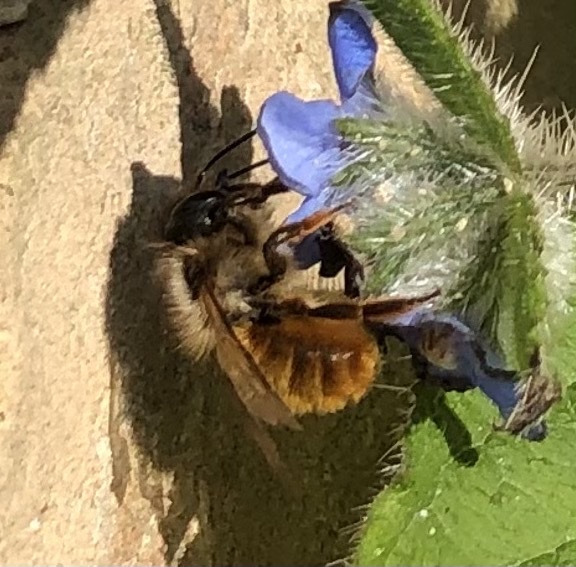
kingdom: Animalia
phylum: Arthropoda
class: Insecta
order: Hymenoptera
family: Megachilidae
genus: Osmia
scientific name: Osmia bicornis
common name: Red mason bee
